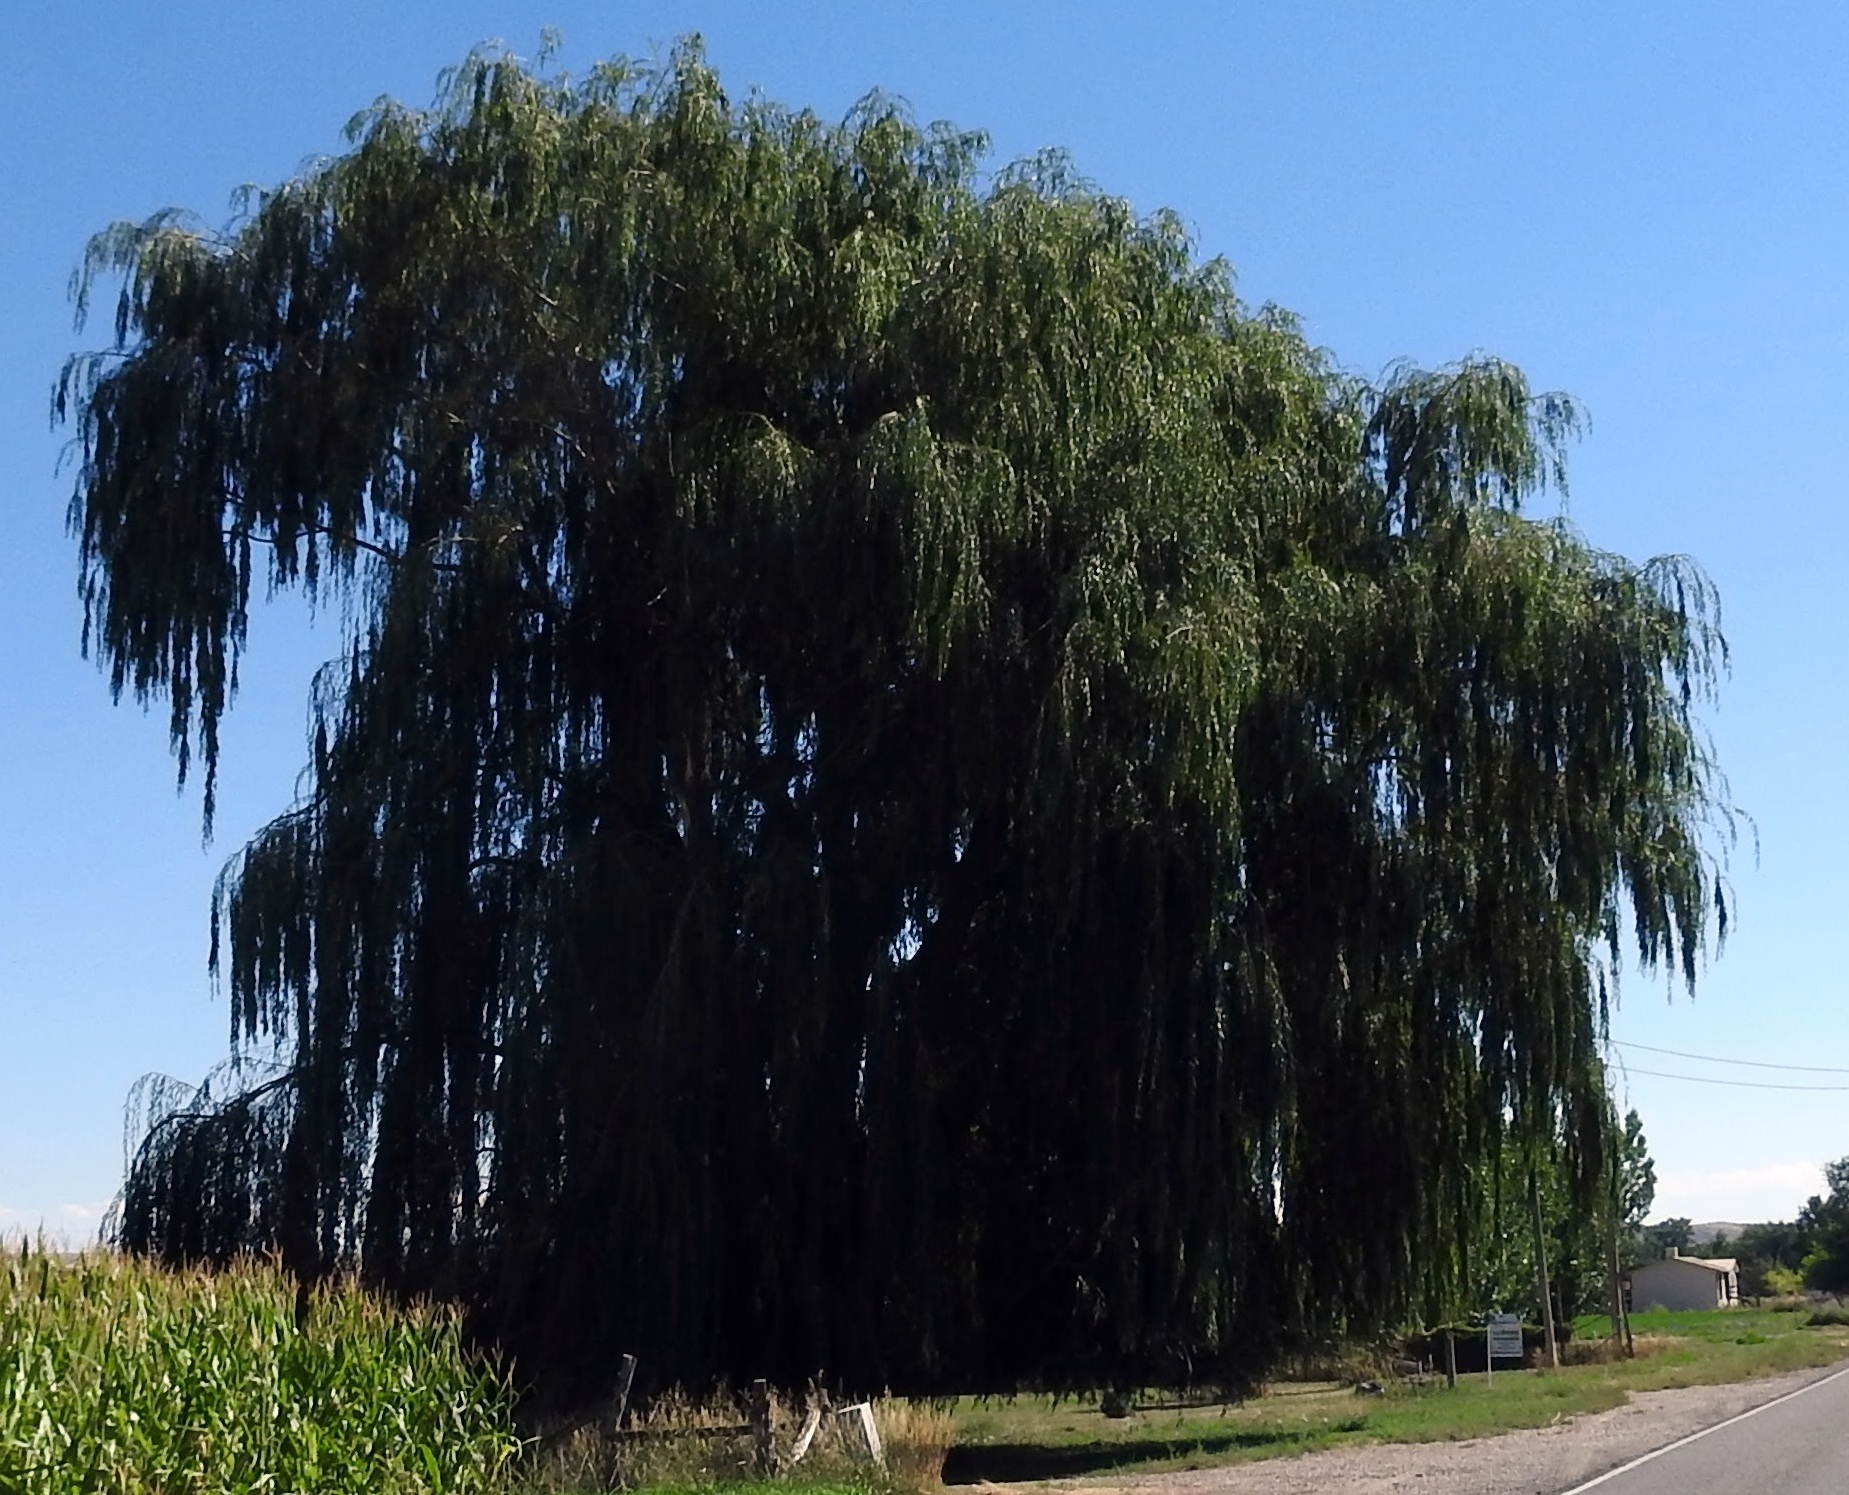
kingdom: Plantae
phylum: Tracheophyta
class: Magnoliopsida
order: Malpighiales
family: Salicaceae
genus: Salix
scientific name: Salix pendulina
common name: Wisconsin weeping willow
